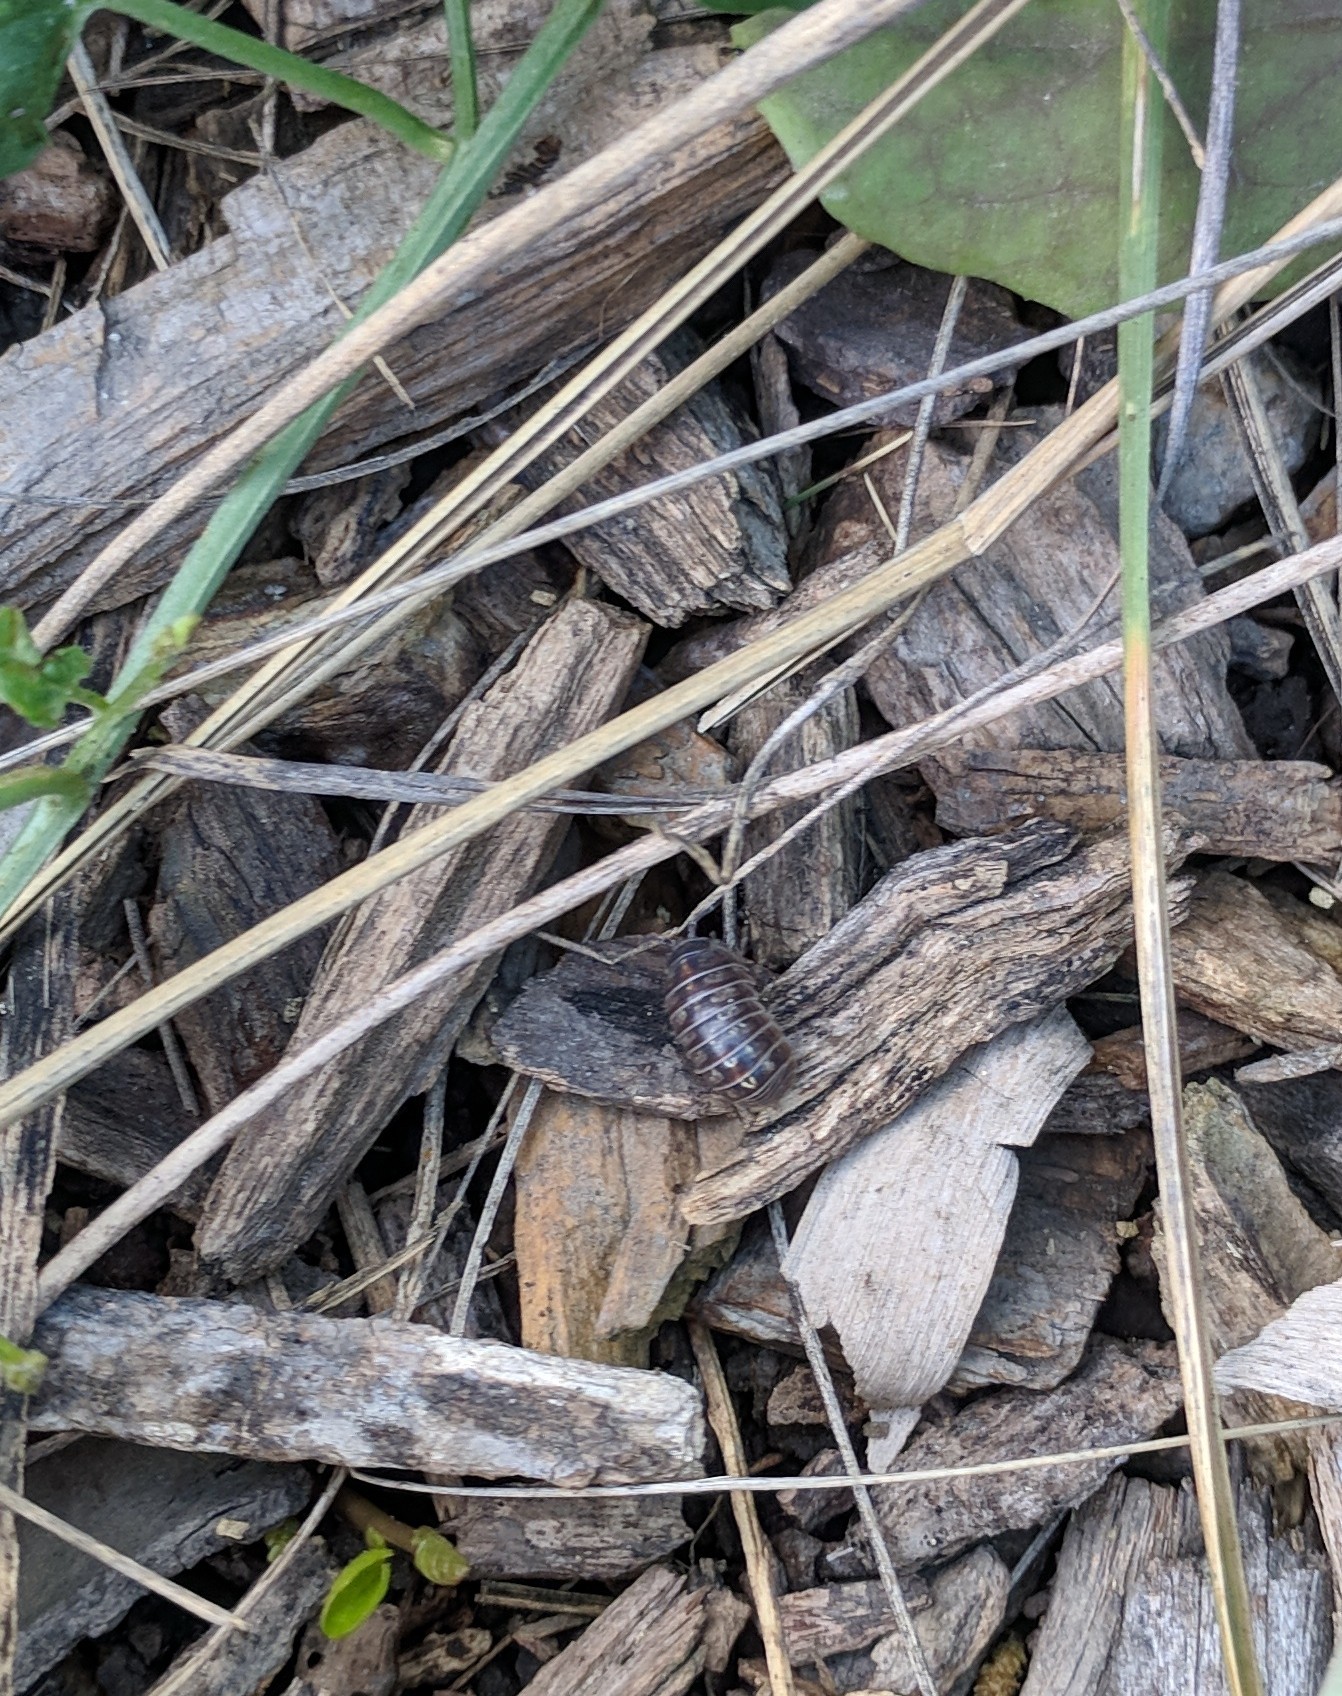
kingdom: Animalia
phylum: Arthropoda
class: Malacostraca
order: Isopoda
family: Armadillidiidae
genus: Armadillidium
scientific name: Armadillidium vulgare
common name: Common pill woodlouse
